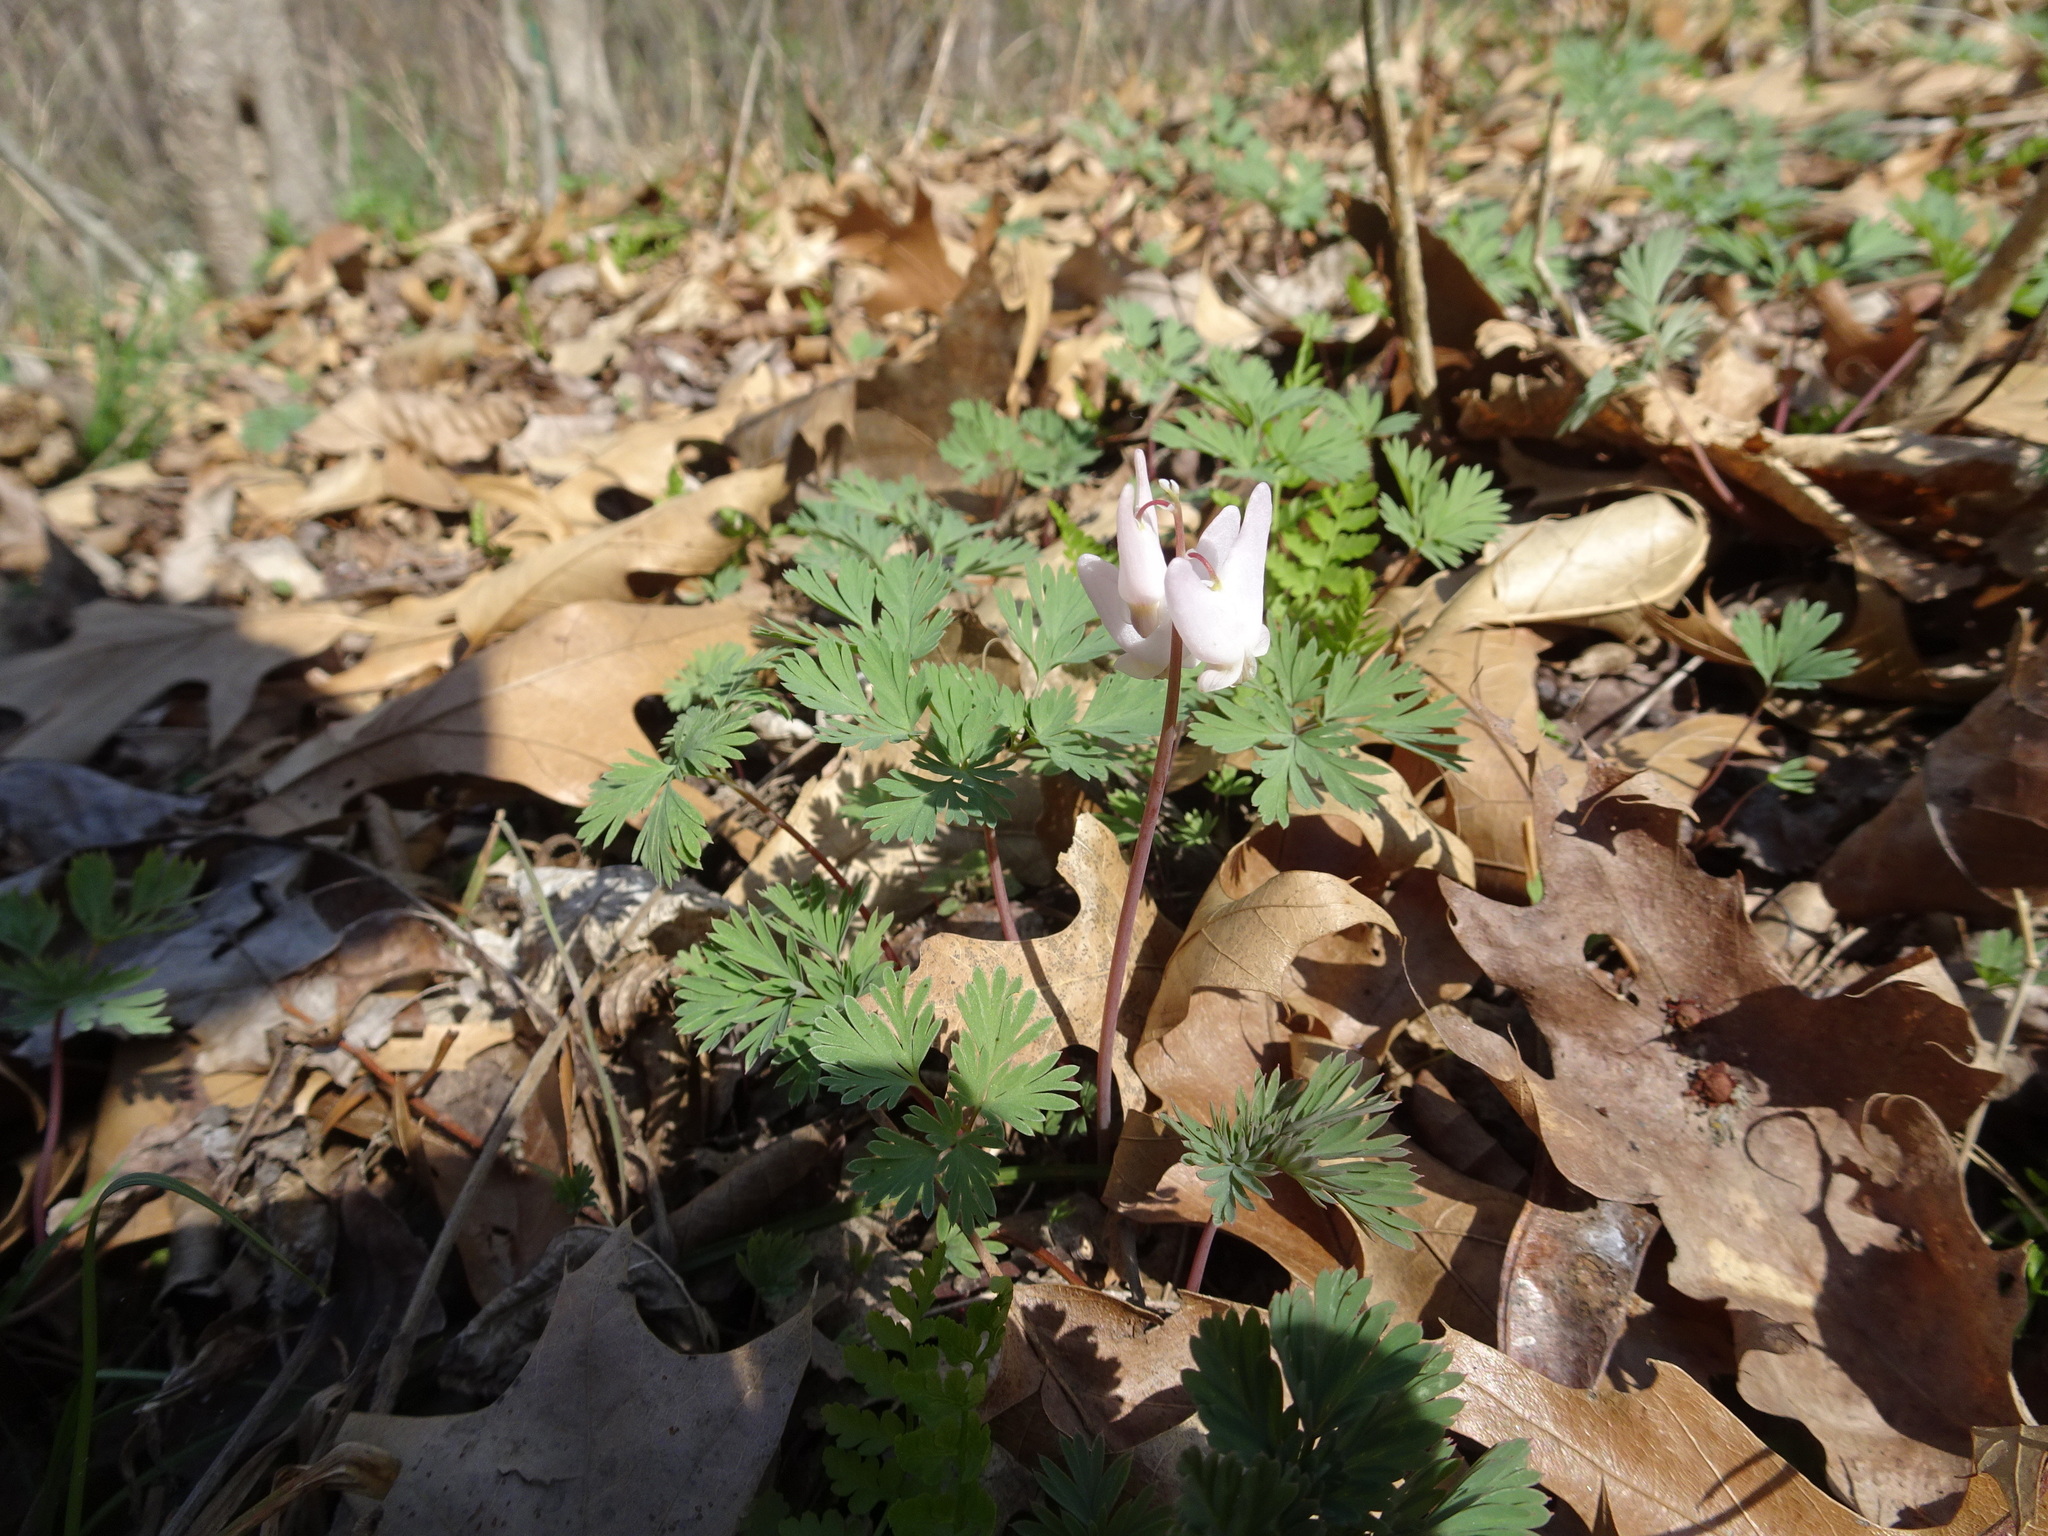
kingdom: Plantae
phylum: Tracheophyta
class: Magnoliopsida
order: Ranunculales
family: Papaveraceae
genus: Dicentra
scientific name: Dicentra cucullaria
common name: Dutchman's breeches
